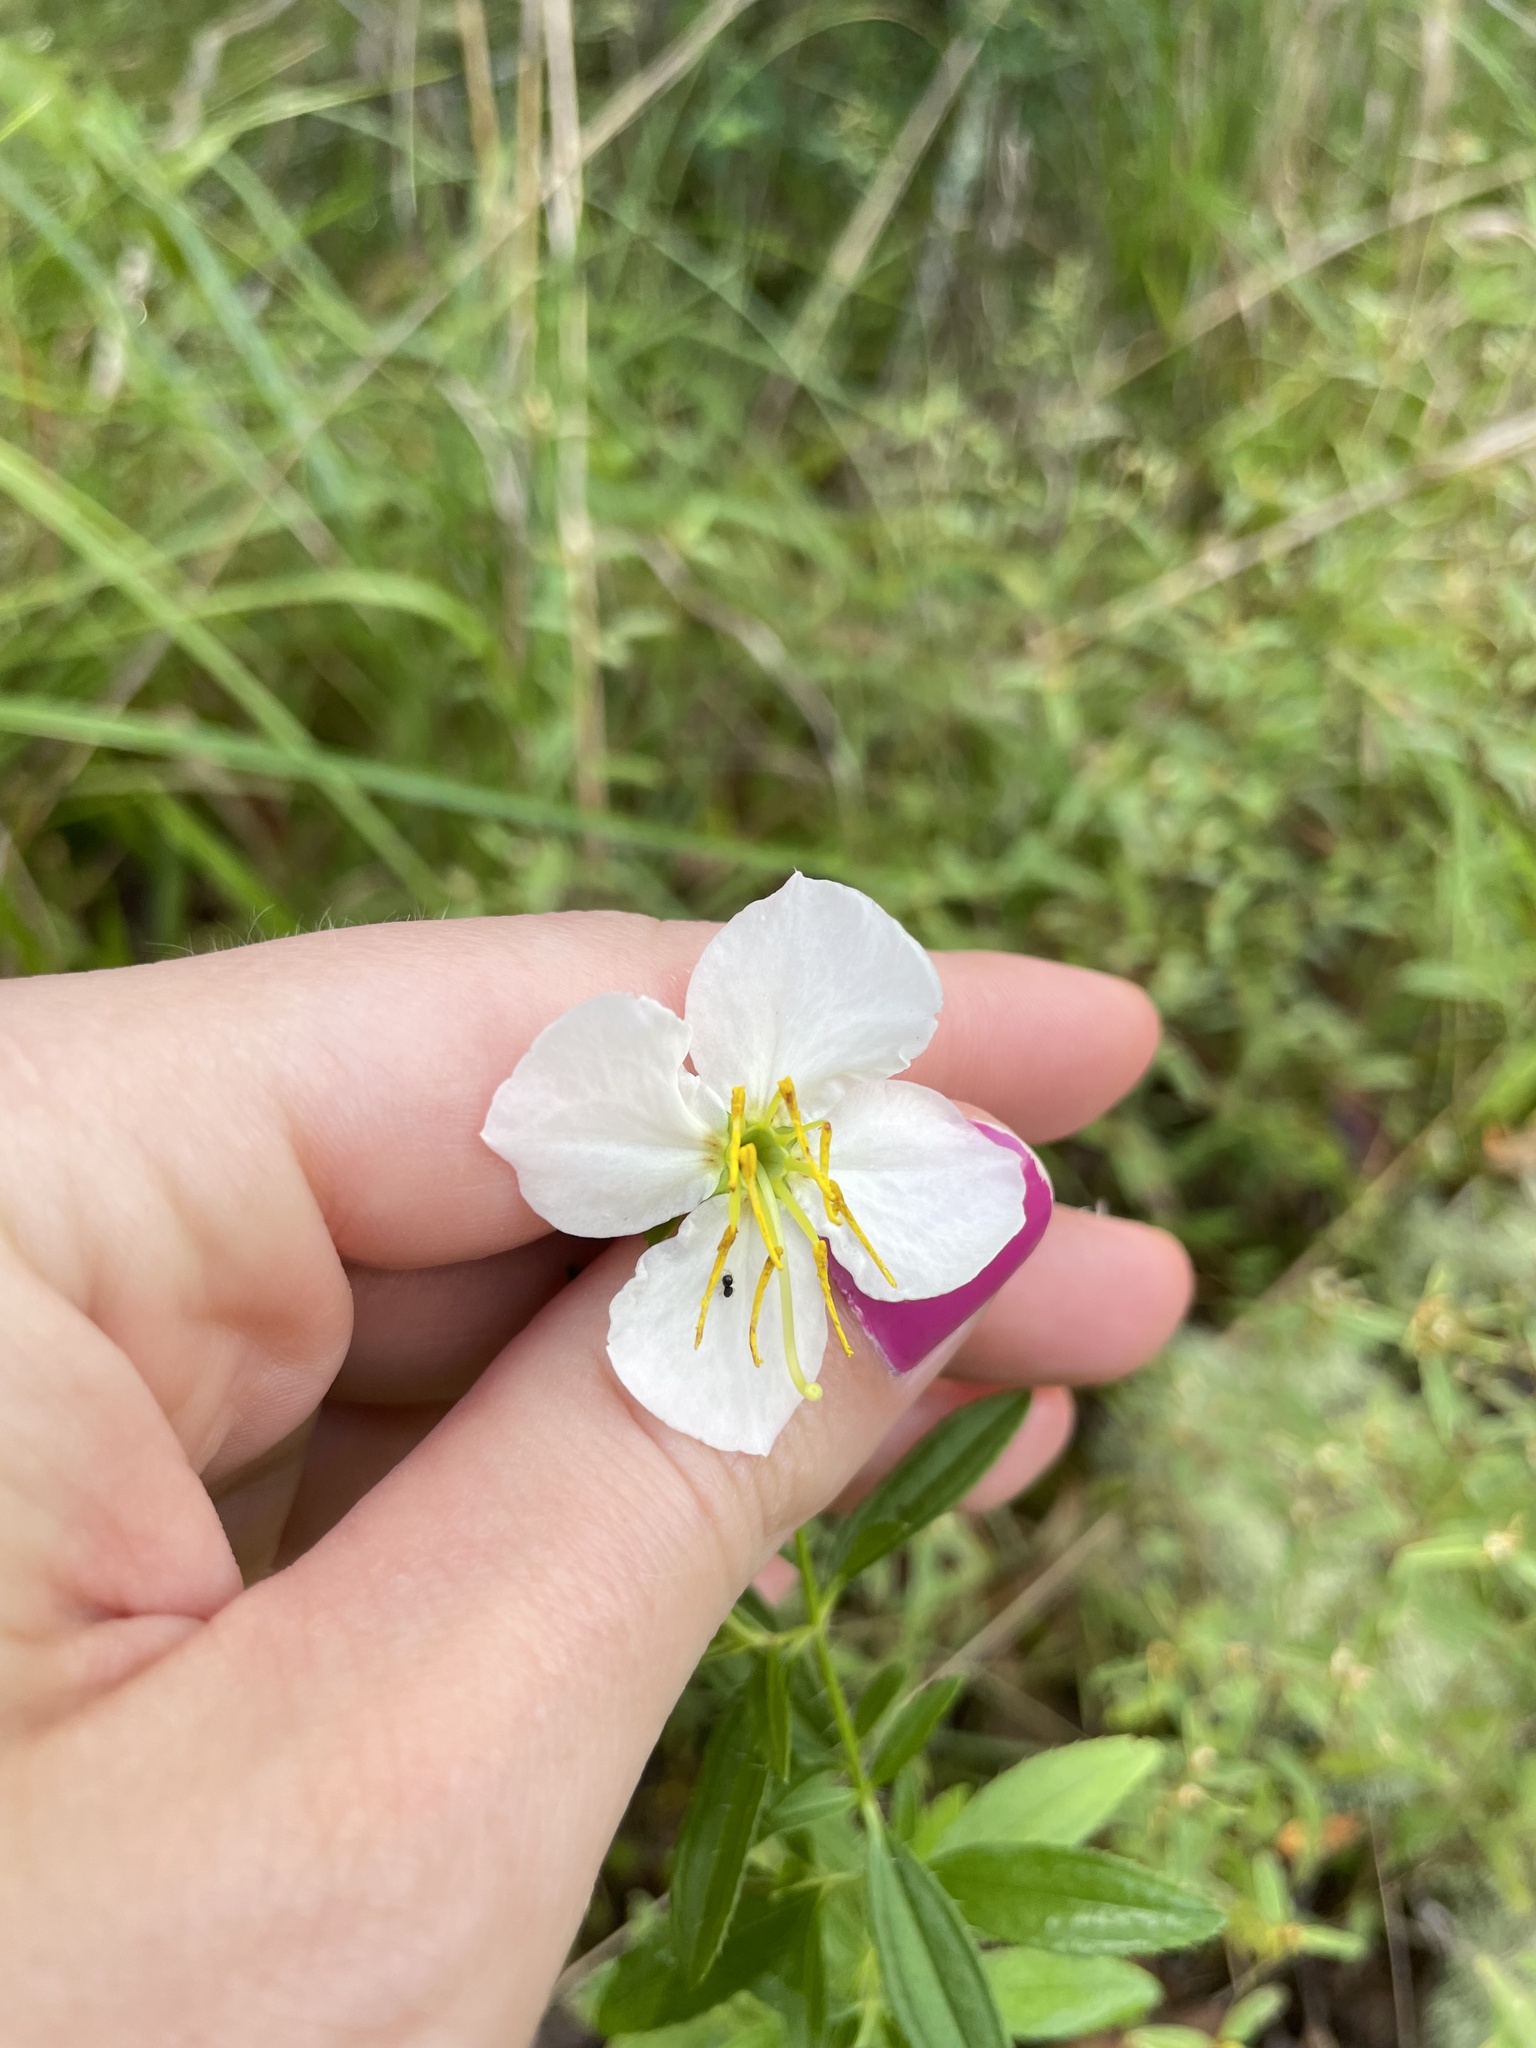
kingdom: Plantae
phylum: Tracheophyta
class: Magnoliopsida
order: Myrtales
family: Melastomataceae
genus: Rhexia
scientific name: Rhexia mariana
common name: Dull meadow-pitcher
